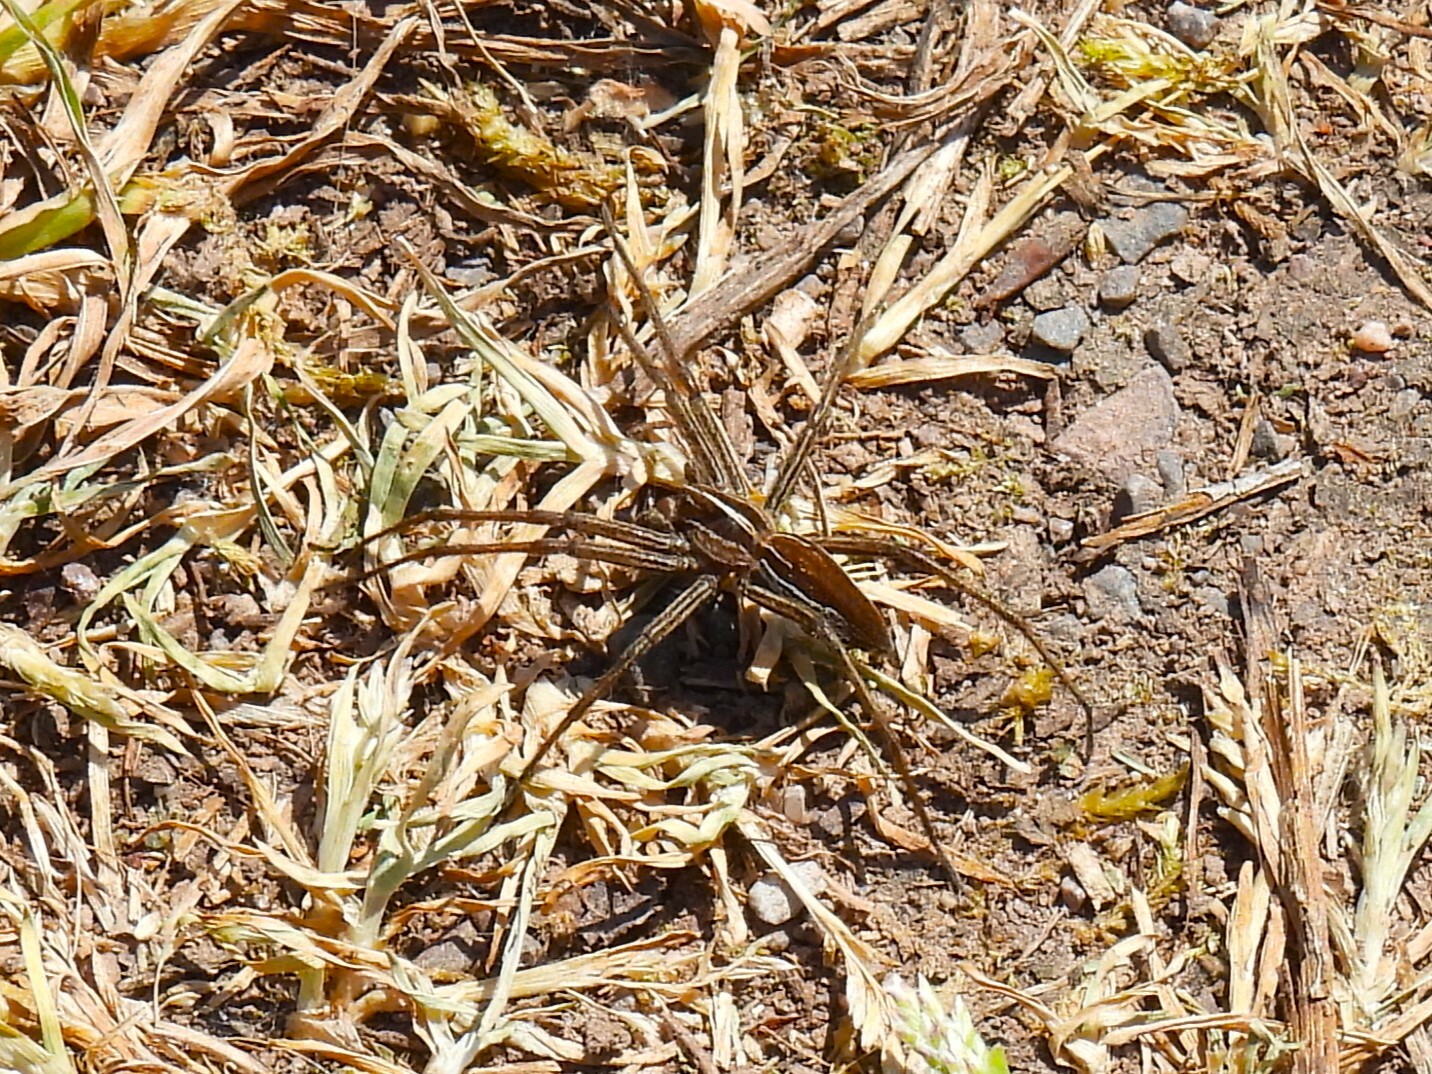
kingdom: Animalia
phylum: Arthropoda
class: Arachnida
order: Araneae
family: Pisauridae
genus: Pisaura
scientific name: Pisaura mirabilis
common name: Tent spider
